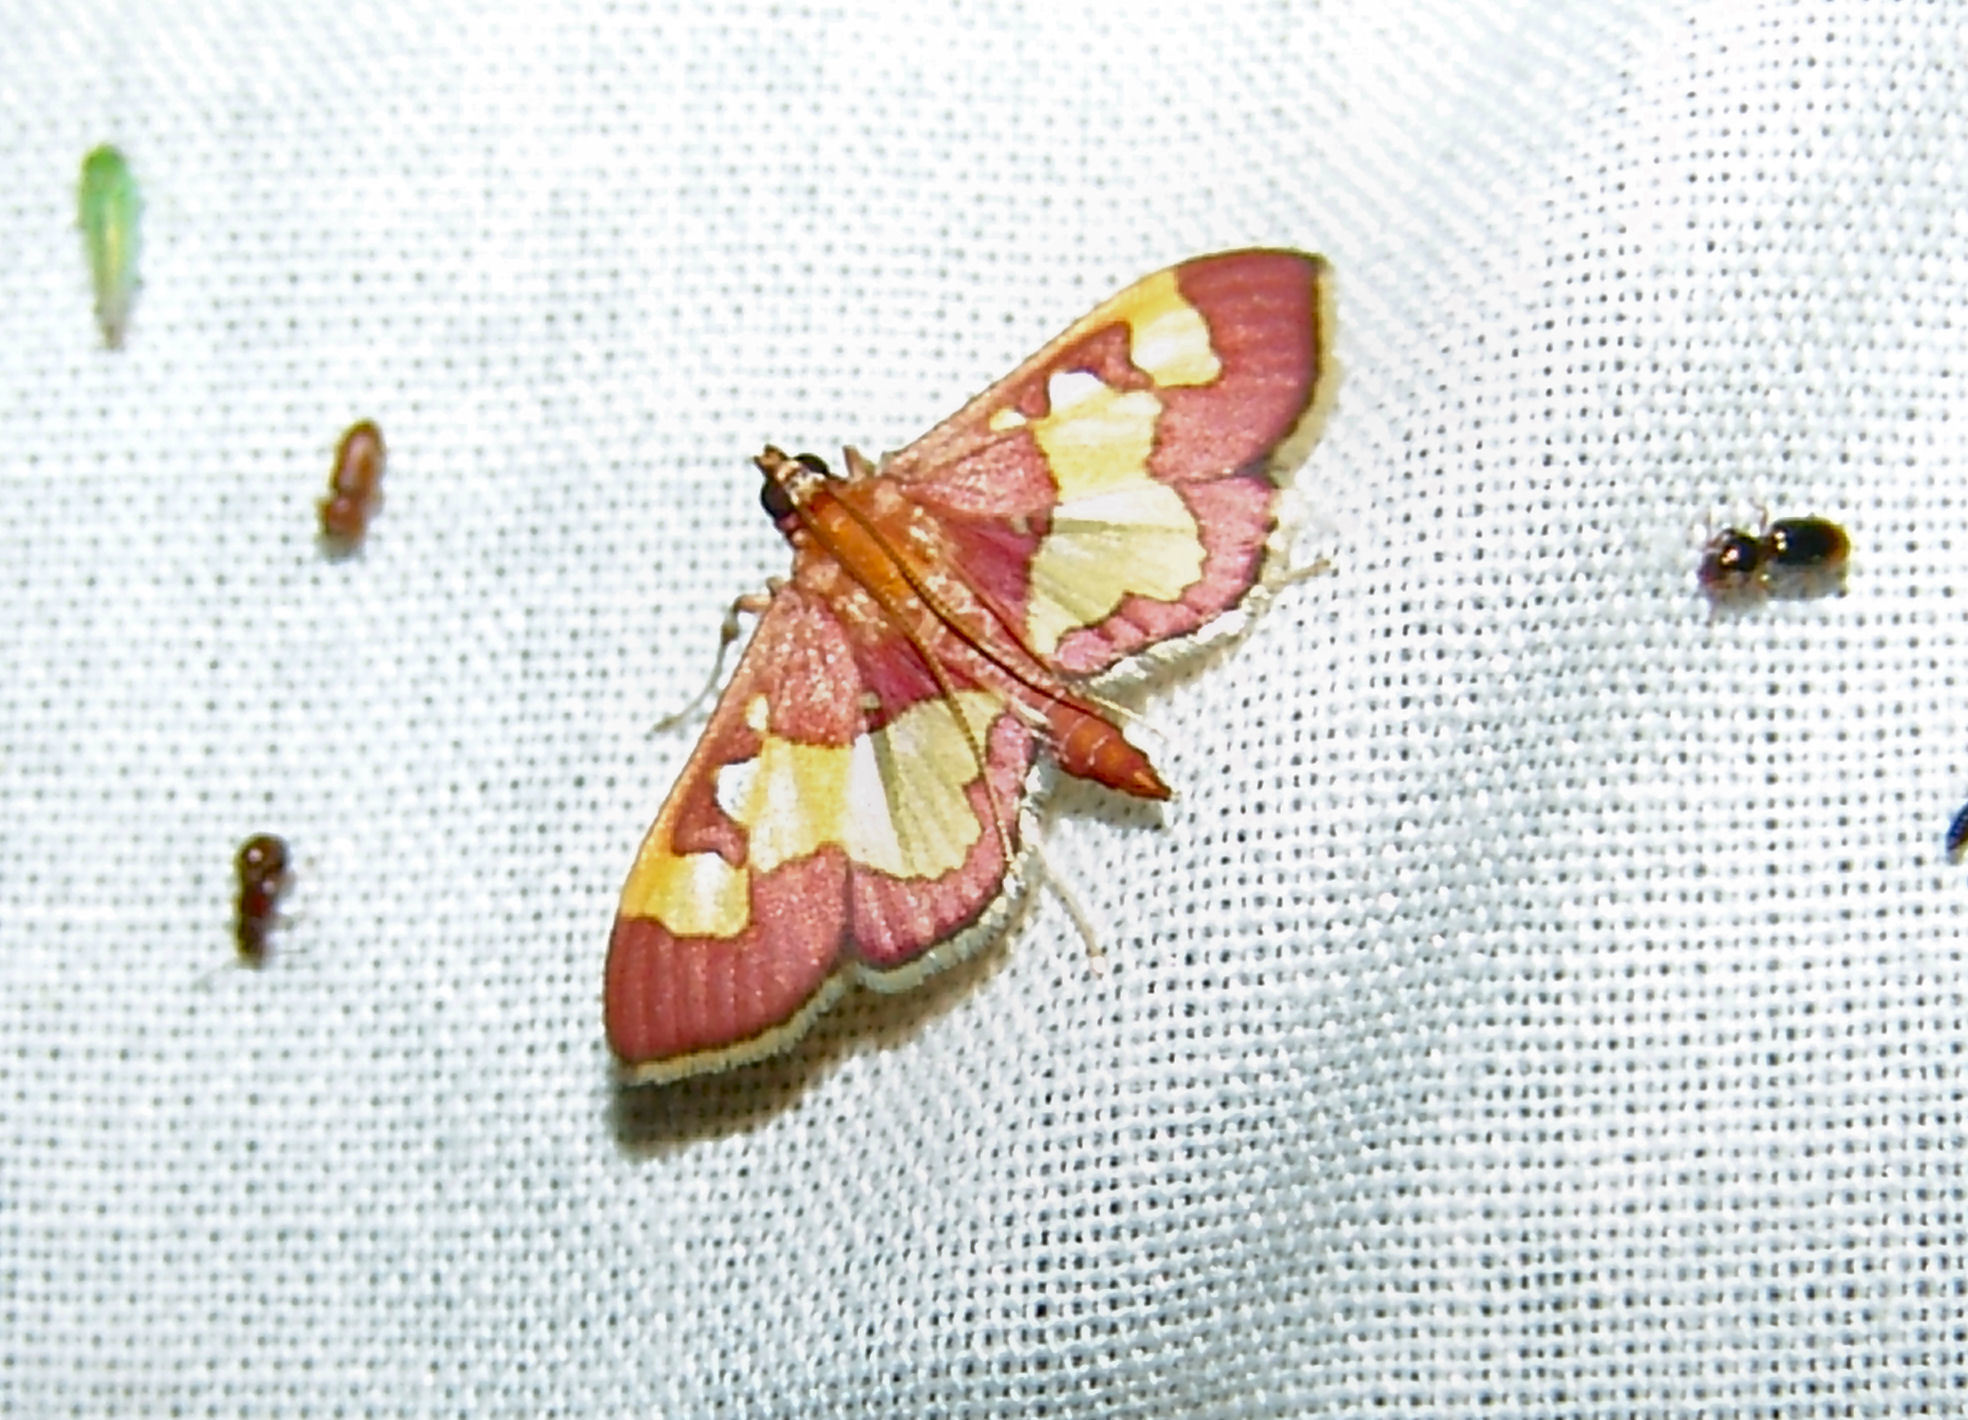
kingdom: Animalia
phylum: Arthropoda
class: Insecta
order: Lepidoptera
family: Crambidae
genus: Colomychus
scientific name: Colomychus talis
